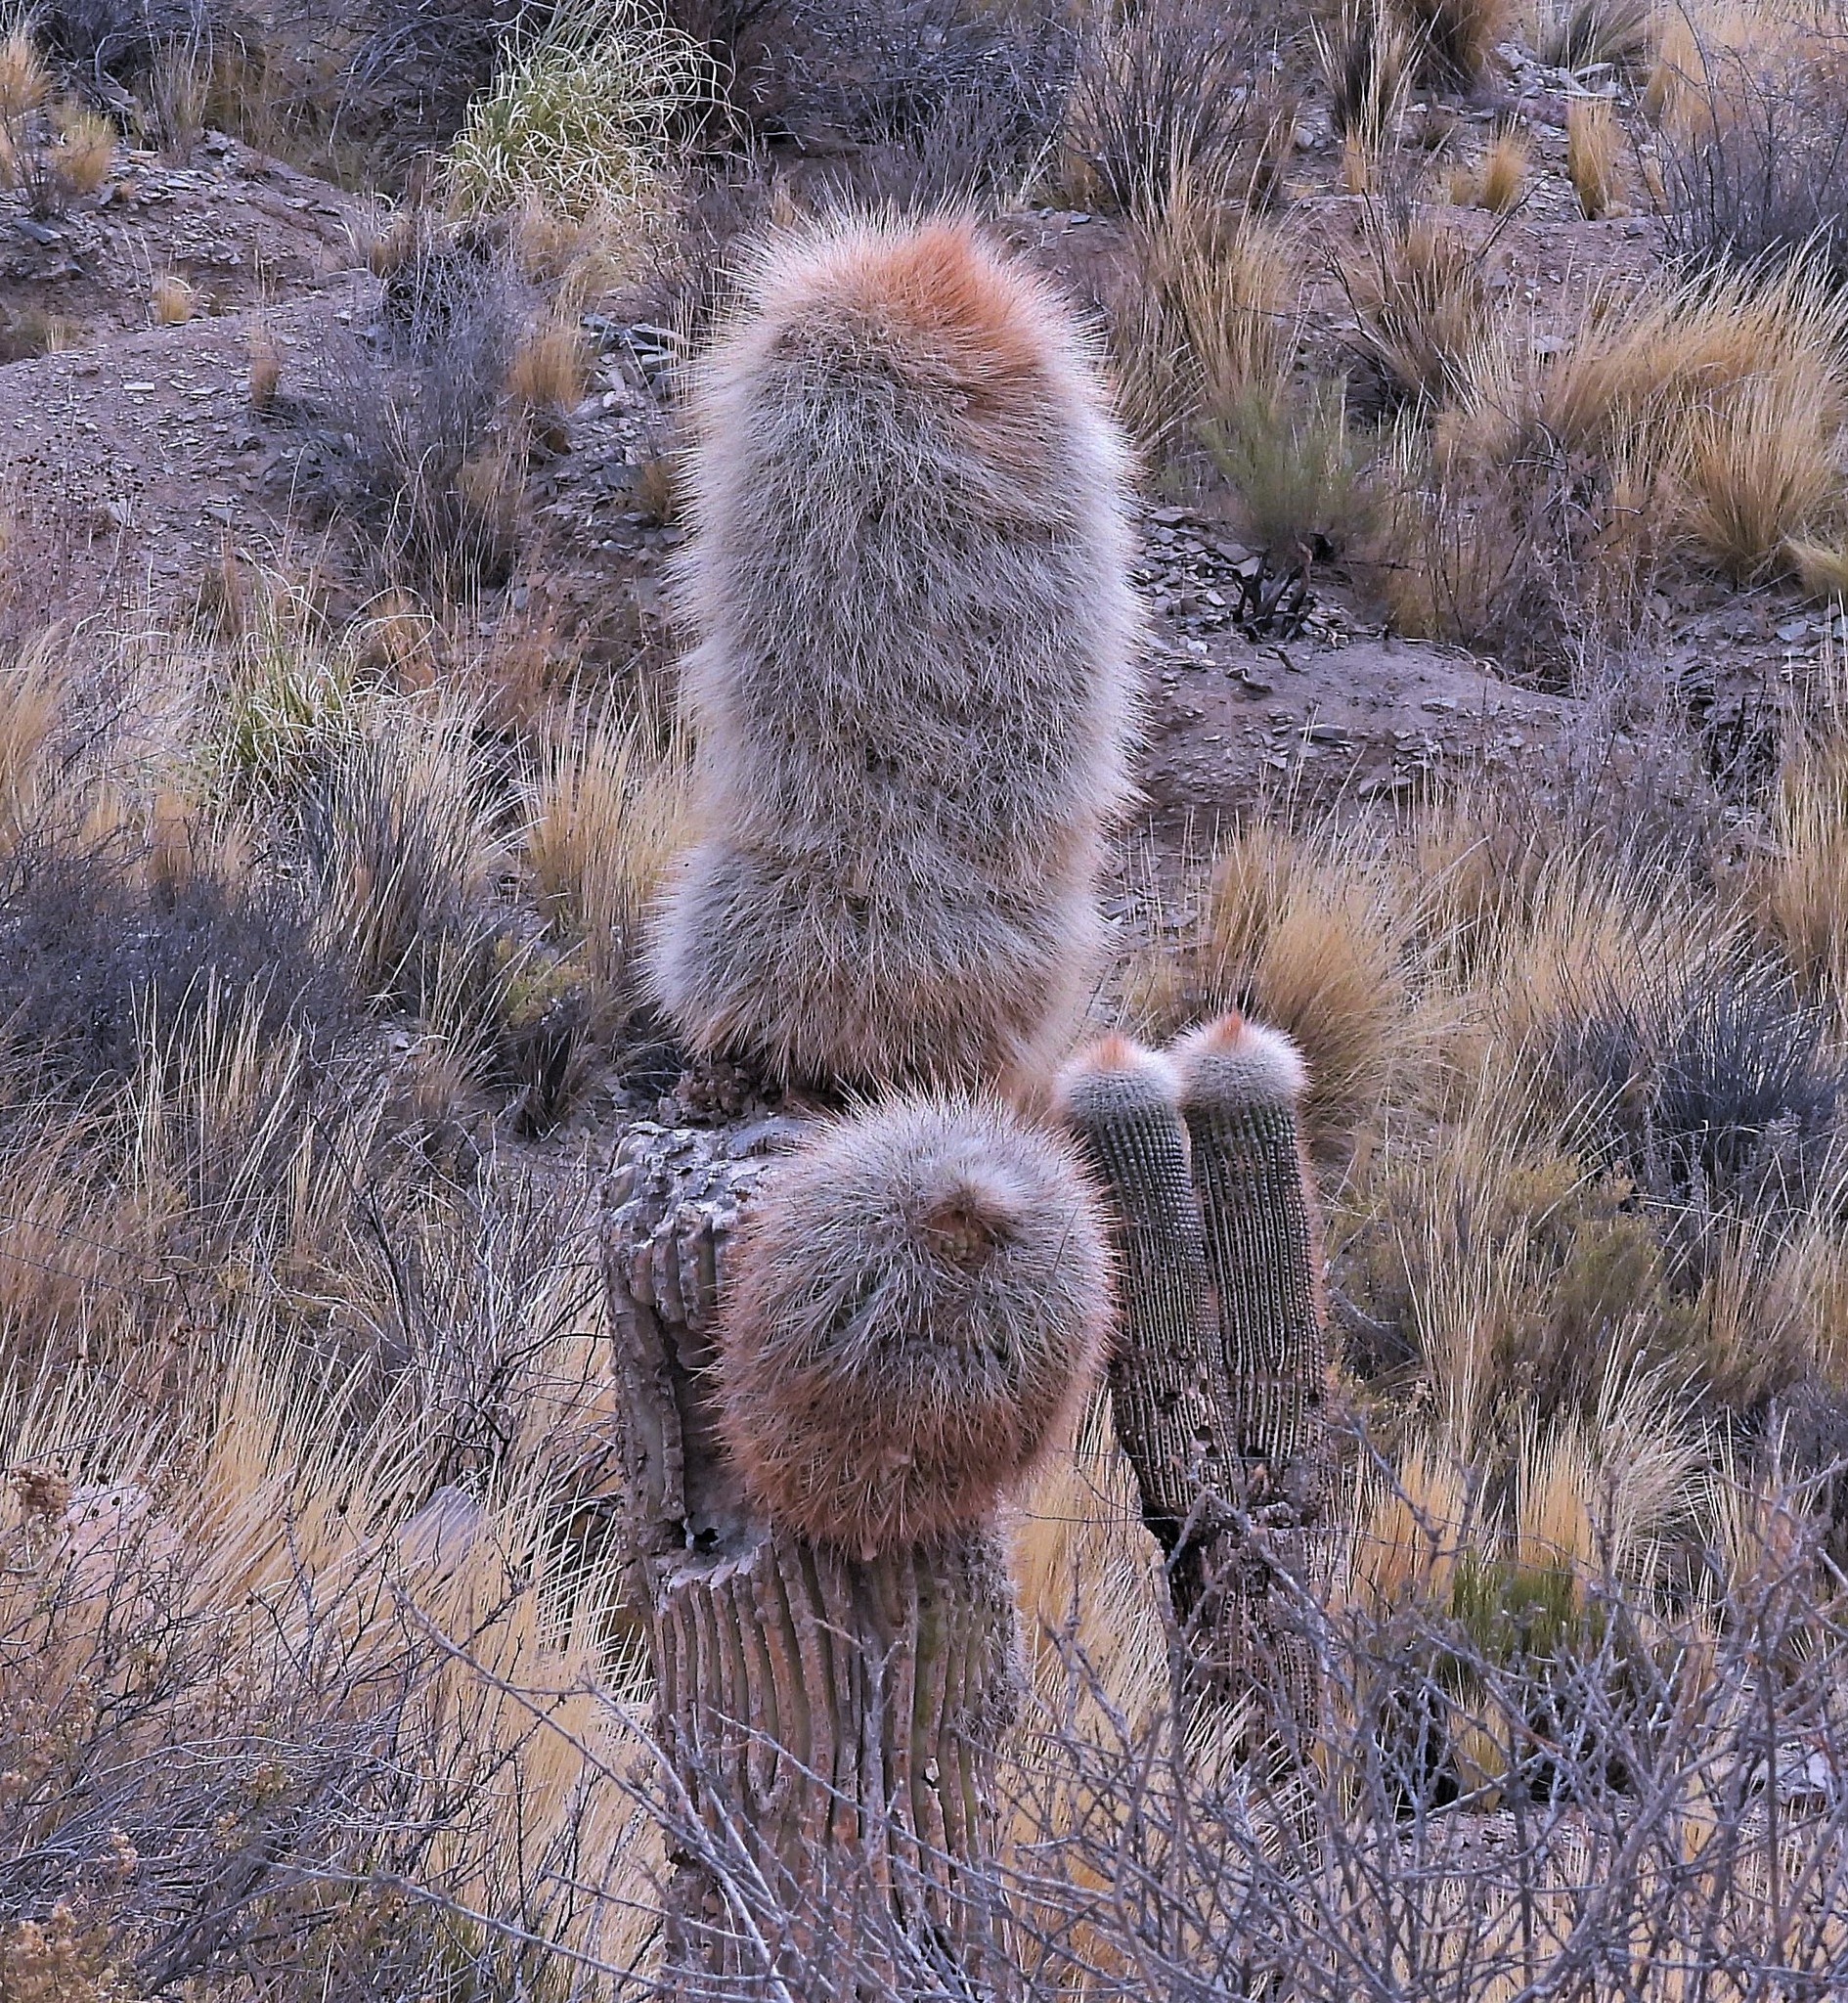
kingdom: Plantae
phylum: Tracheophyta
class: Magnoliopsida
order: Caryophyllales
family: Cactaceae
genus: Soehrensia
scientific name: Soehrensia tarijensis
